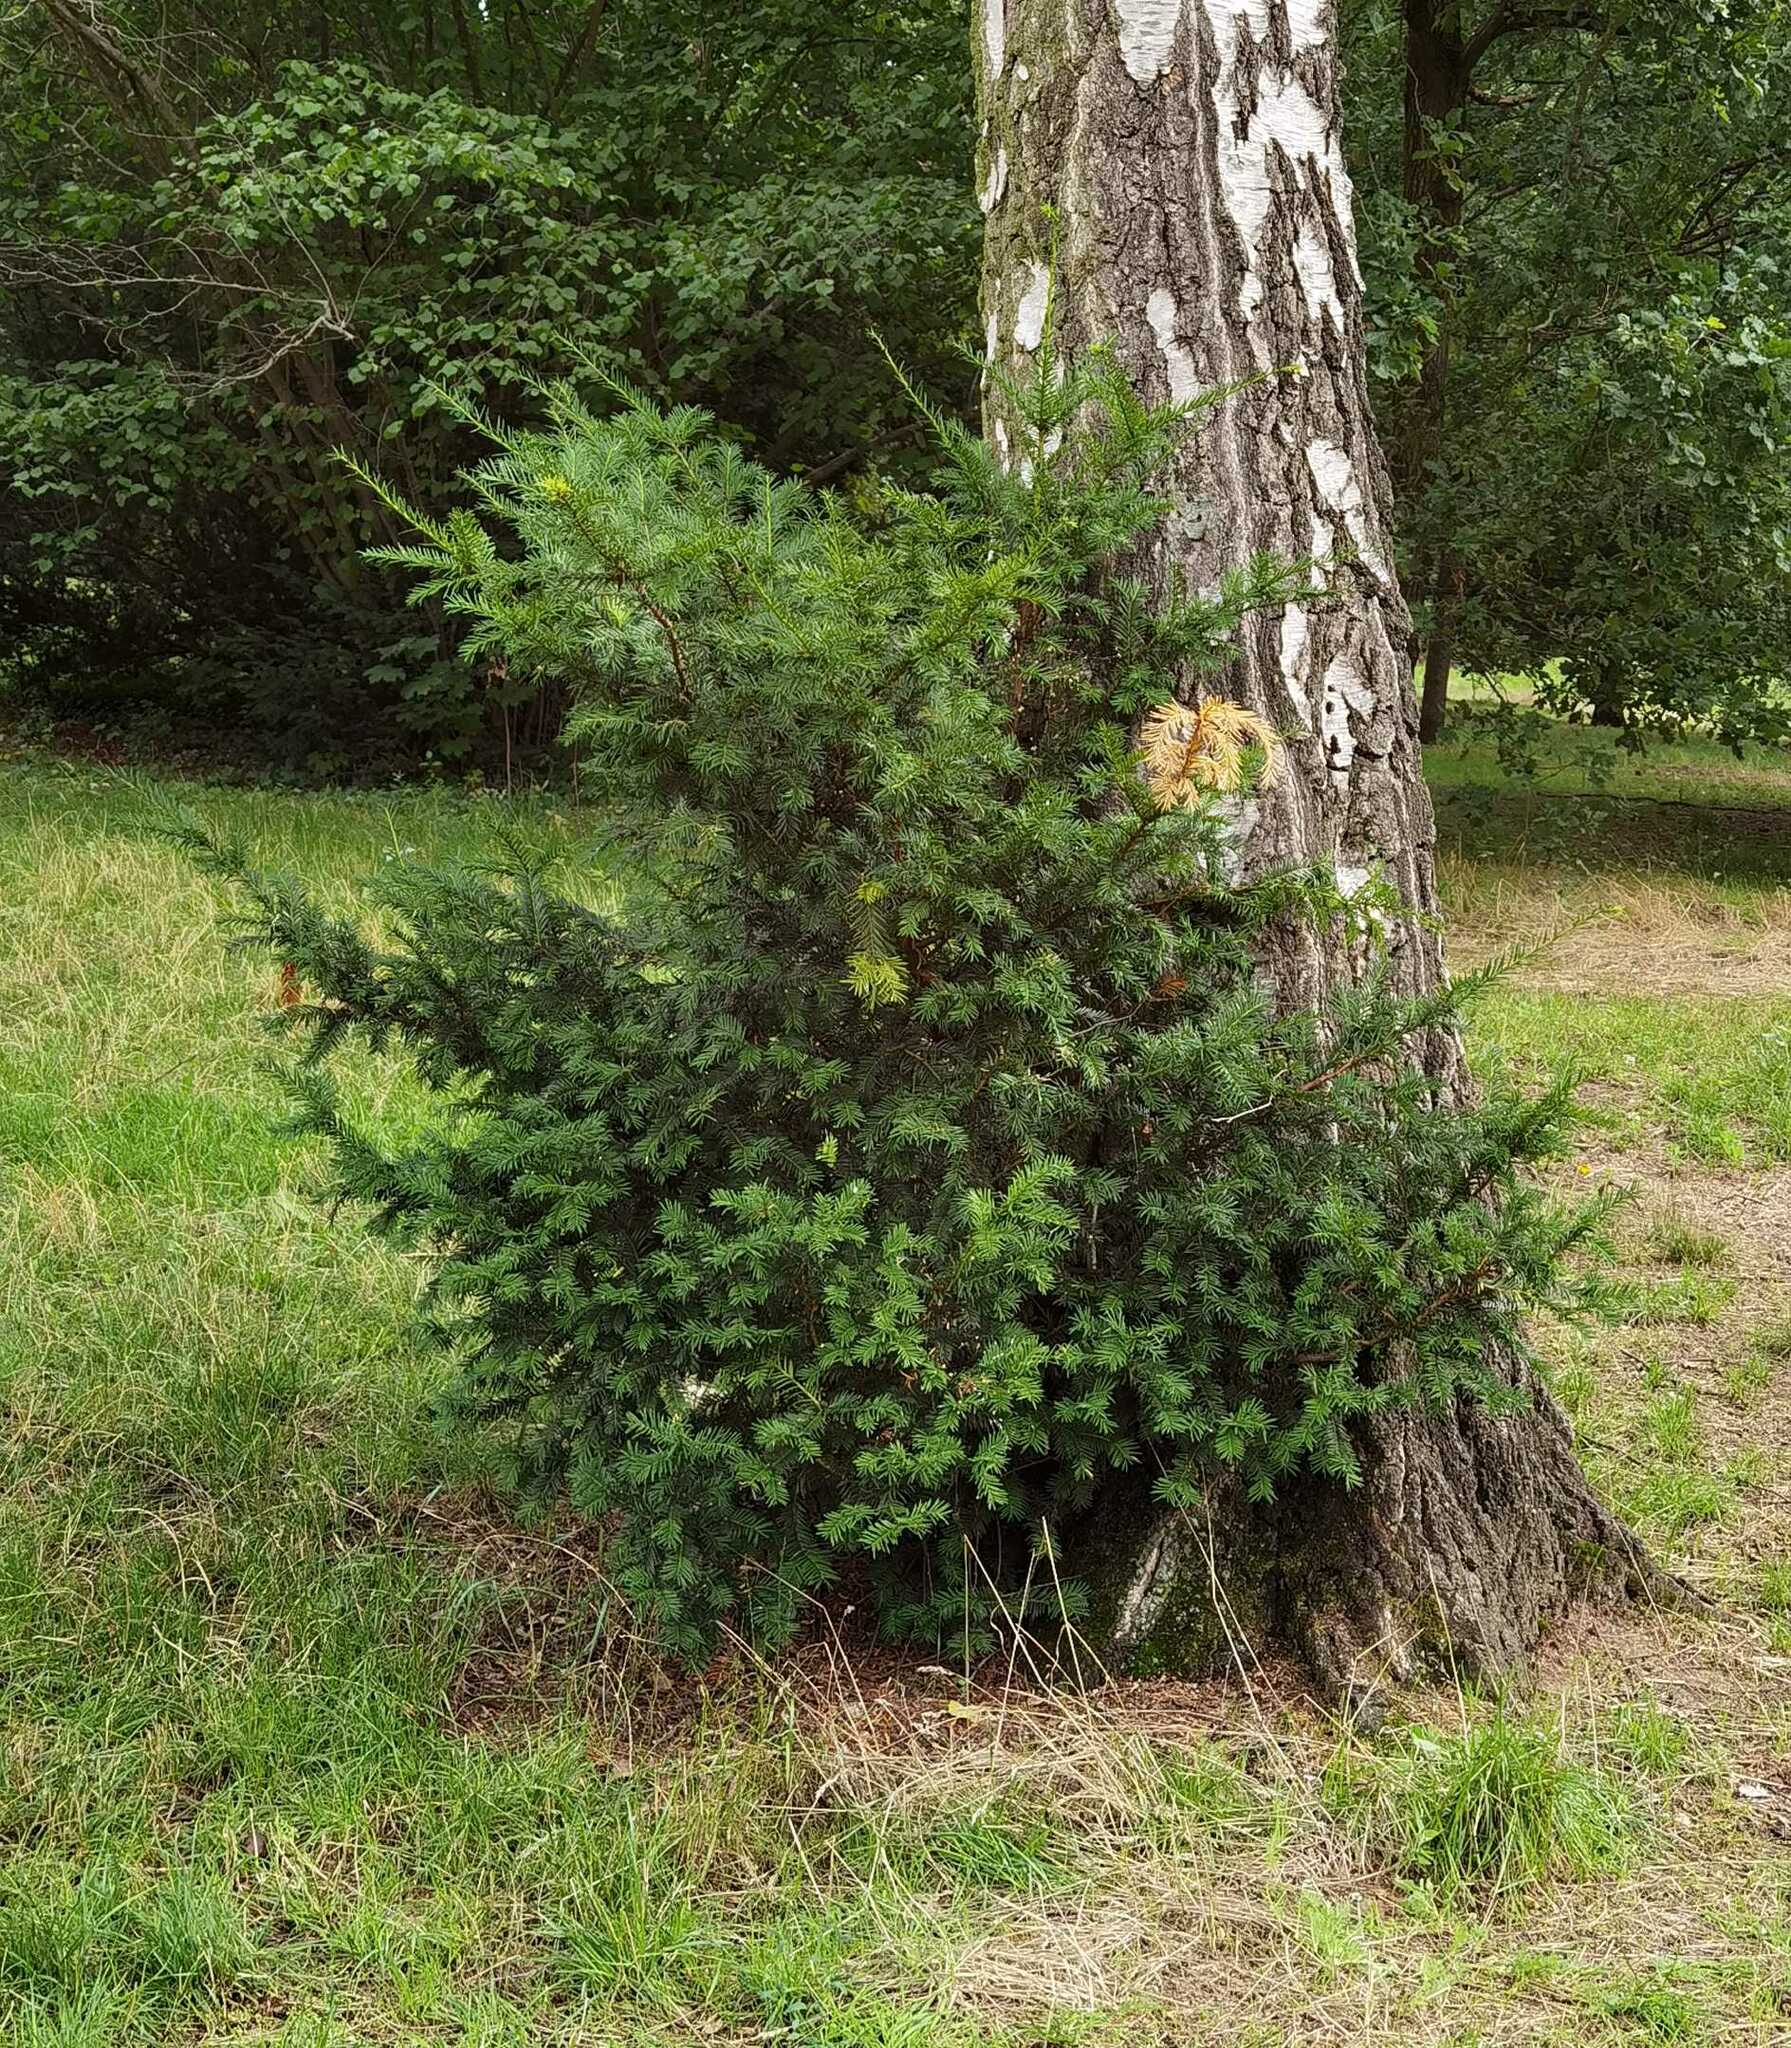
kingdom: Plantae
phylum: Tracheophyta
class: Pinopsida
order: Pinales
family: Taxaceae
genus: Taxus
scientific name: Taxus baccata
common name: Yew
